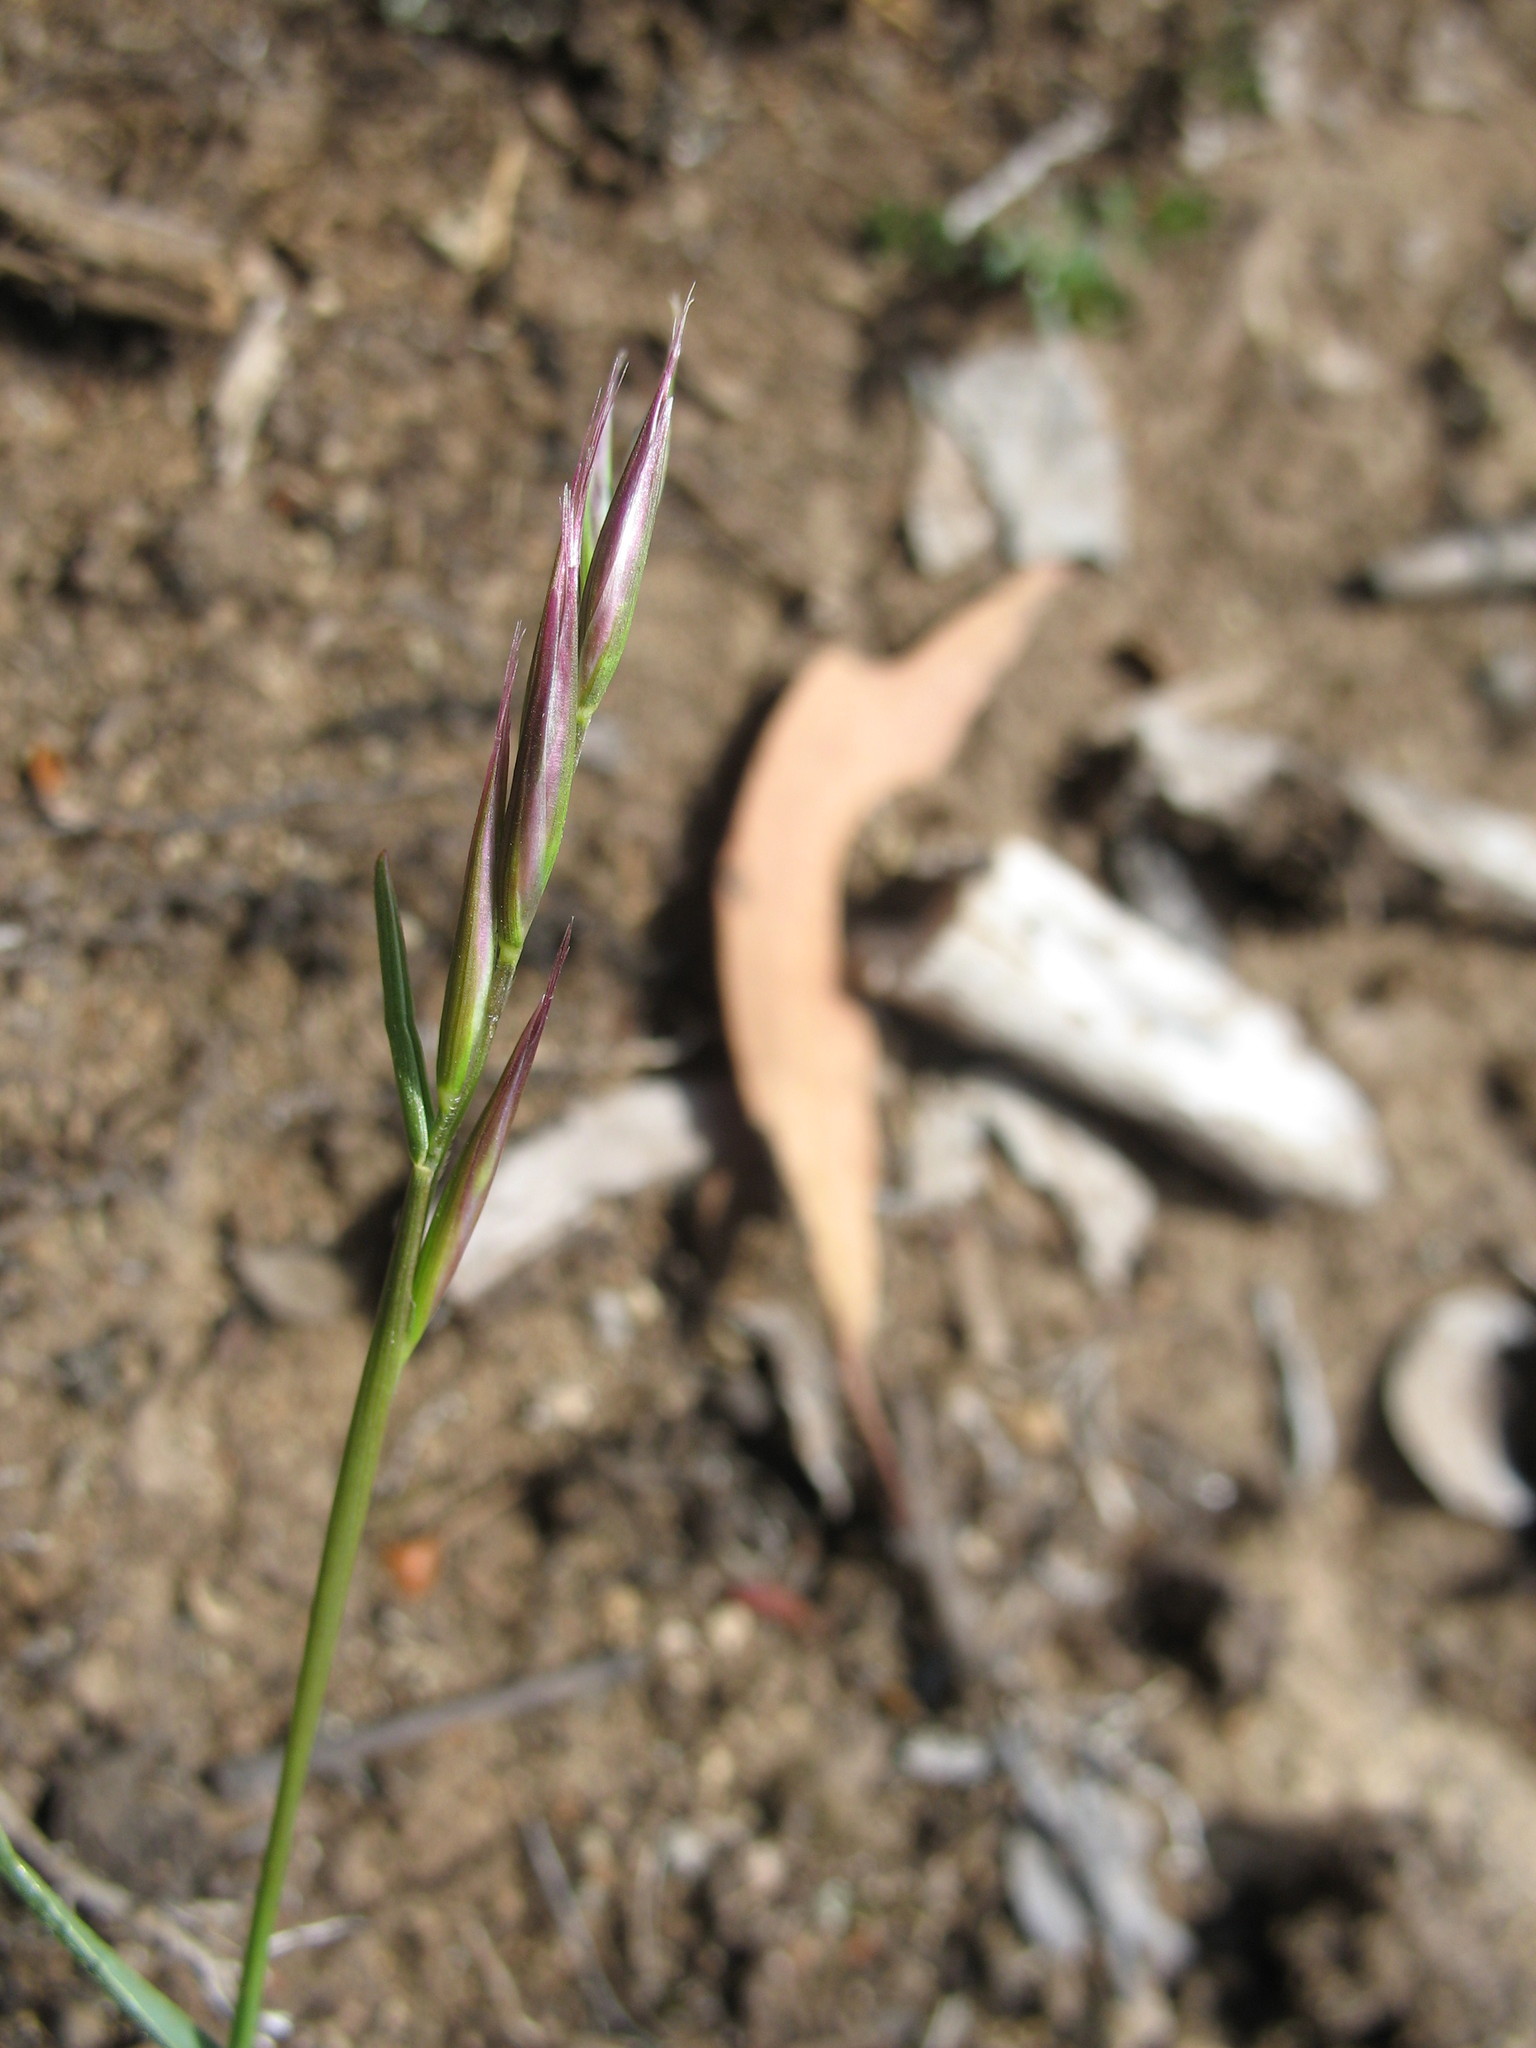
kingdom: Plantae
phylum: Tracheophyta
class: Liliopsida
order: Poales
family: Poaceae
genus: Rytidosperma
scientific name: Rytidosperma racemosum
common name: Wallaby-grass
